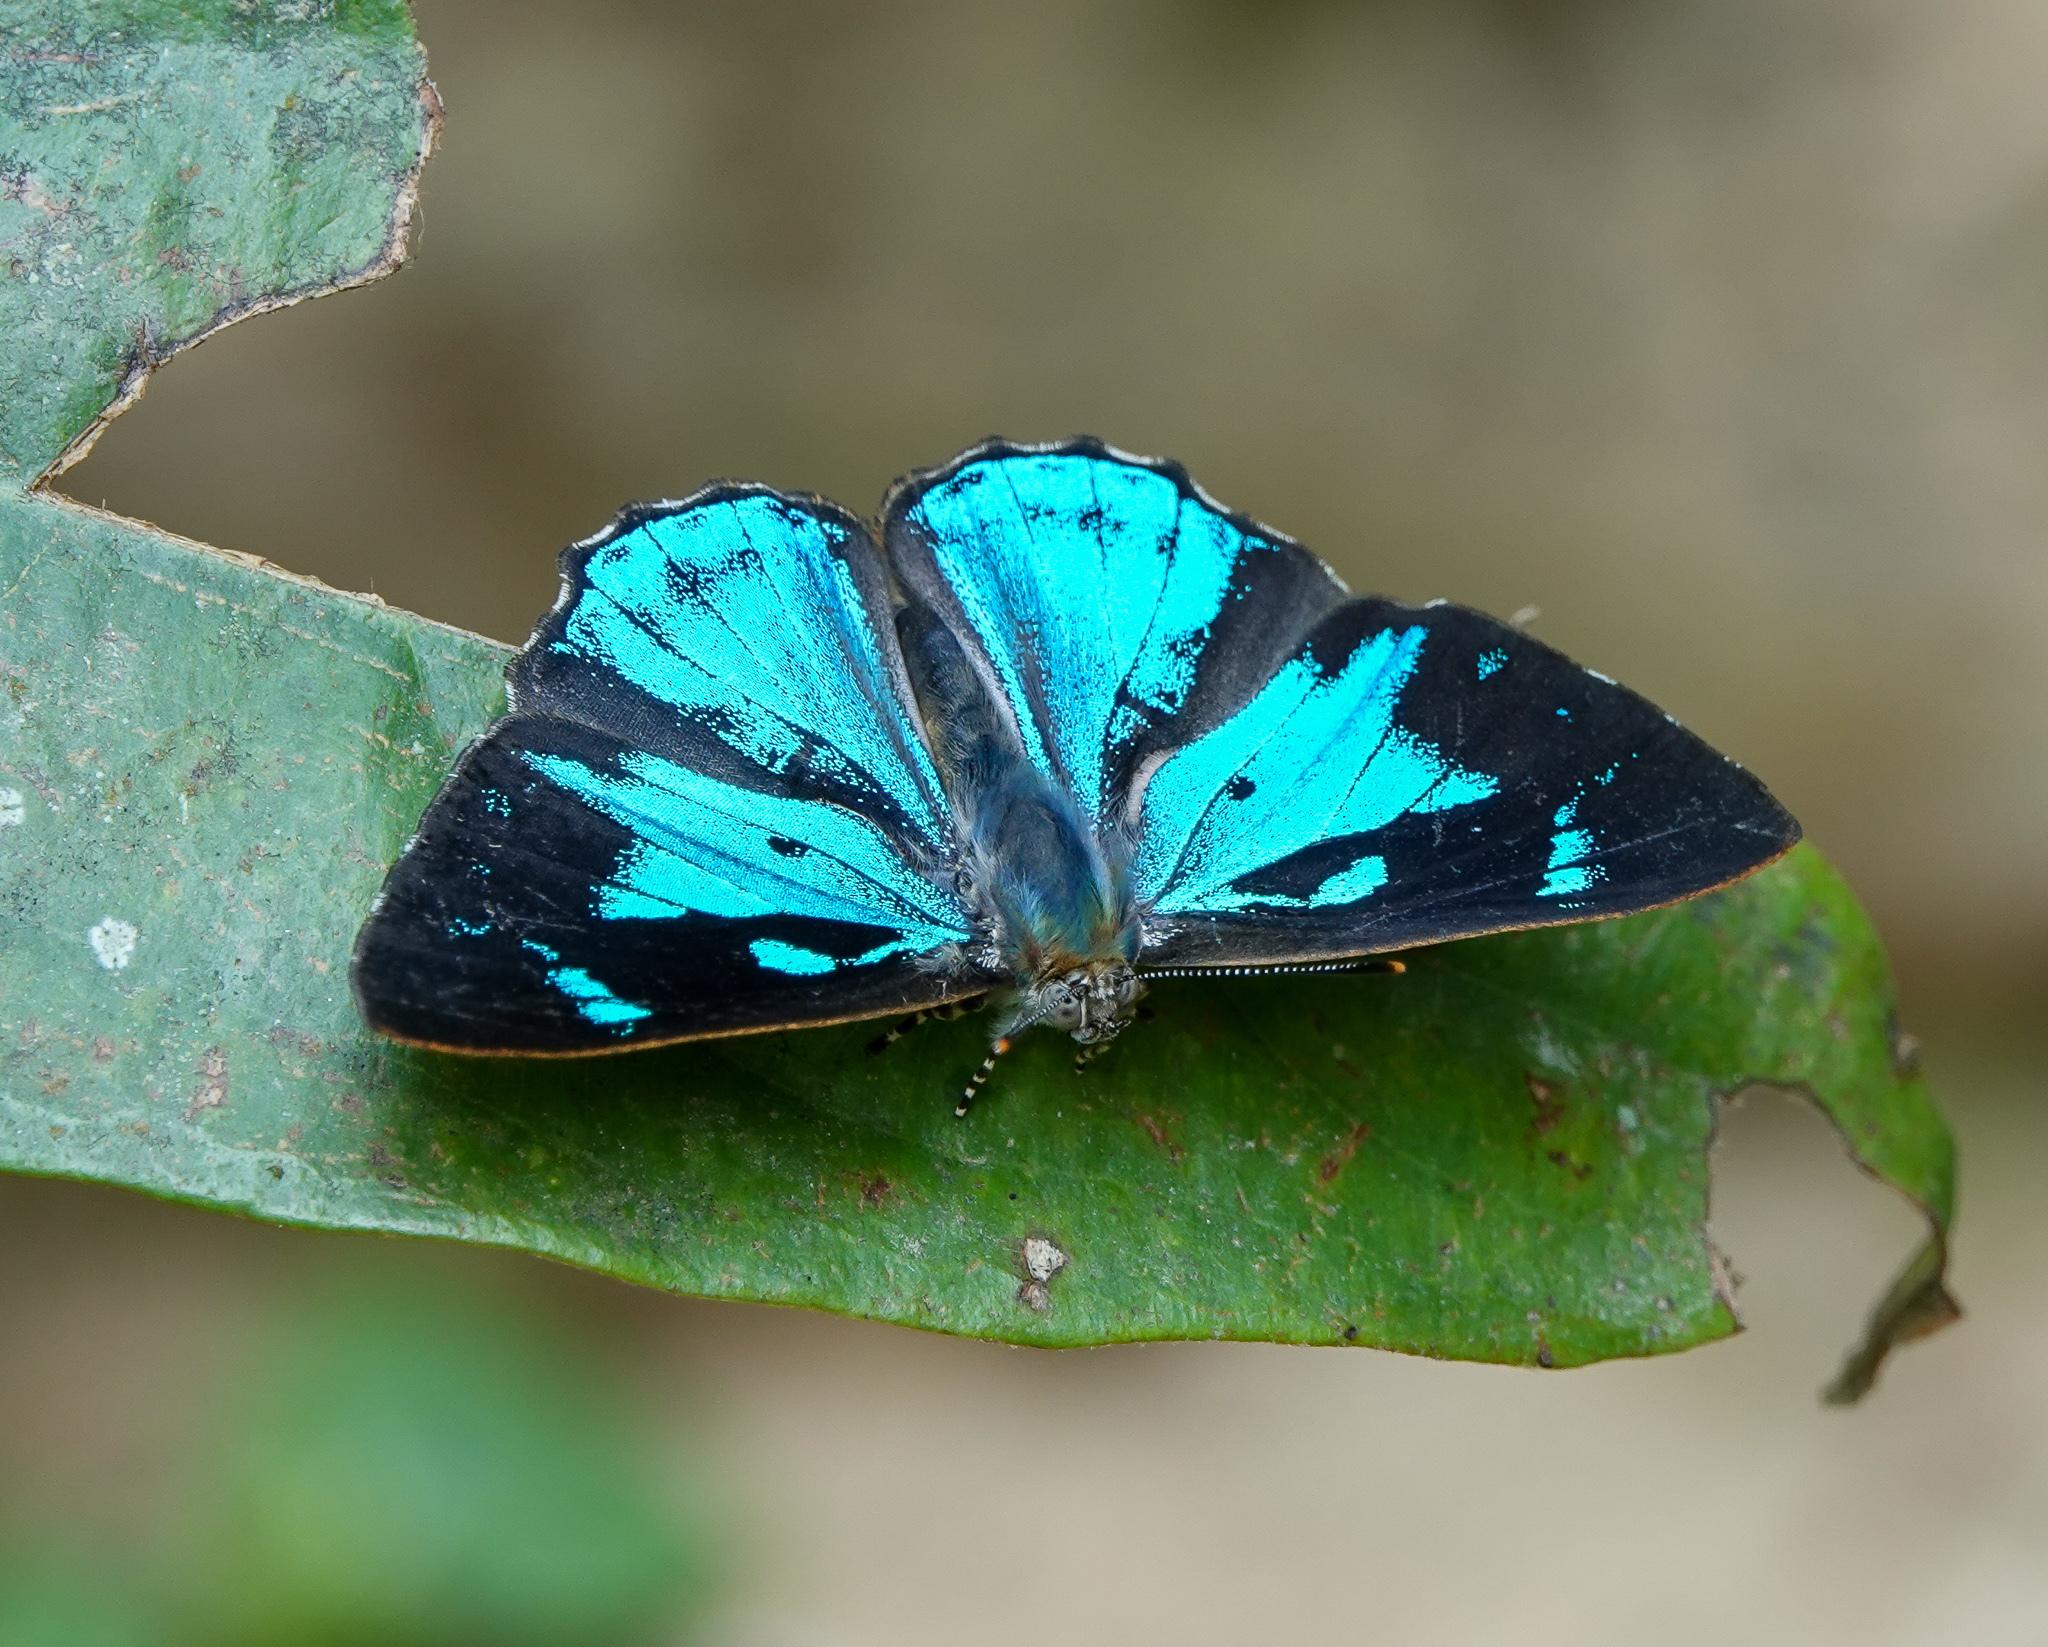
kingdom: Animalia
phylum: Arthropoda
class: Insecta
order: Lepidoptera
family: Lycaenidae
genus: Poritia
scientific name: Poritia hewitsoni
